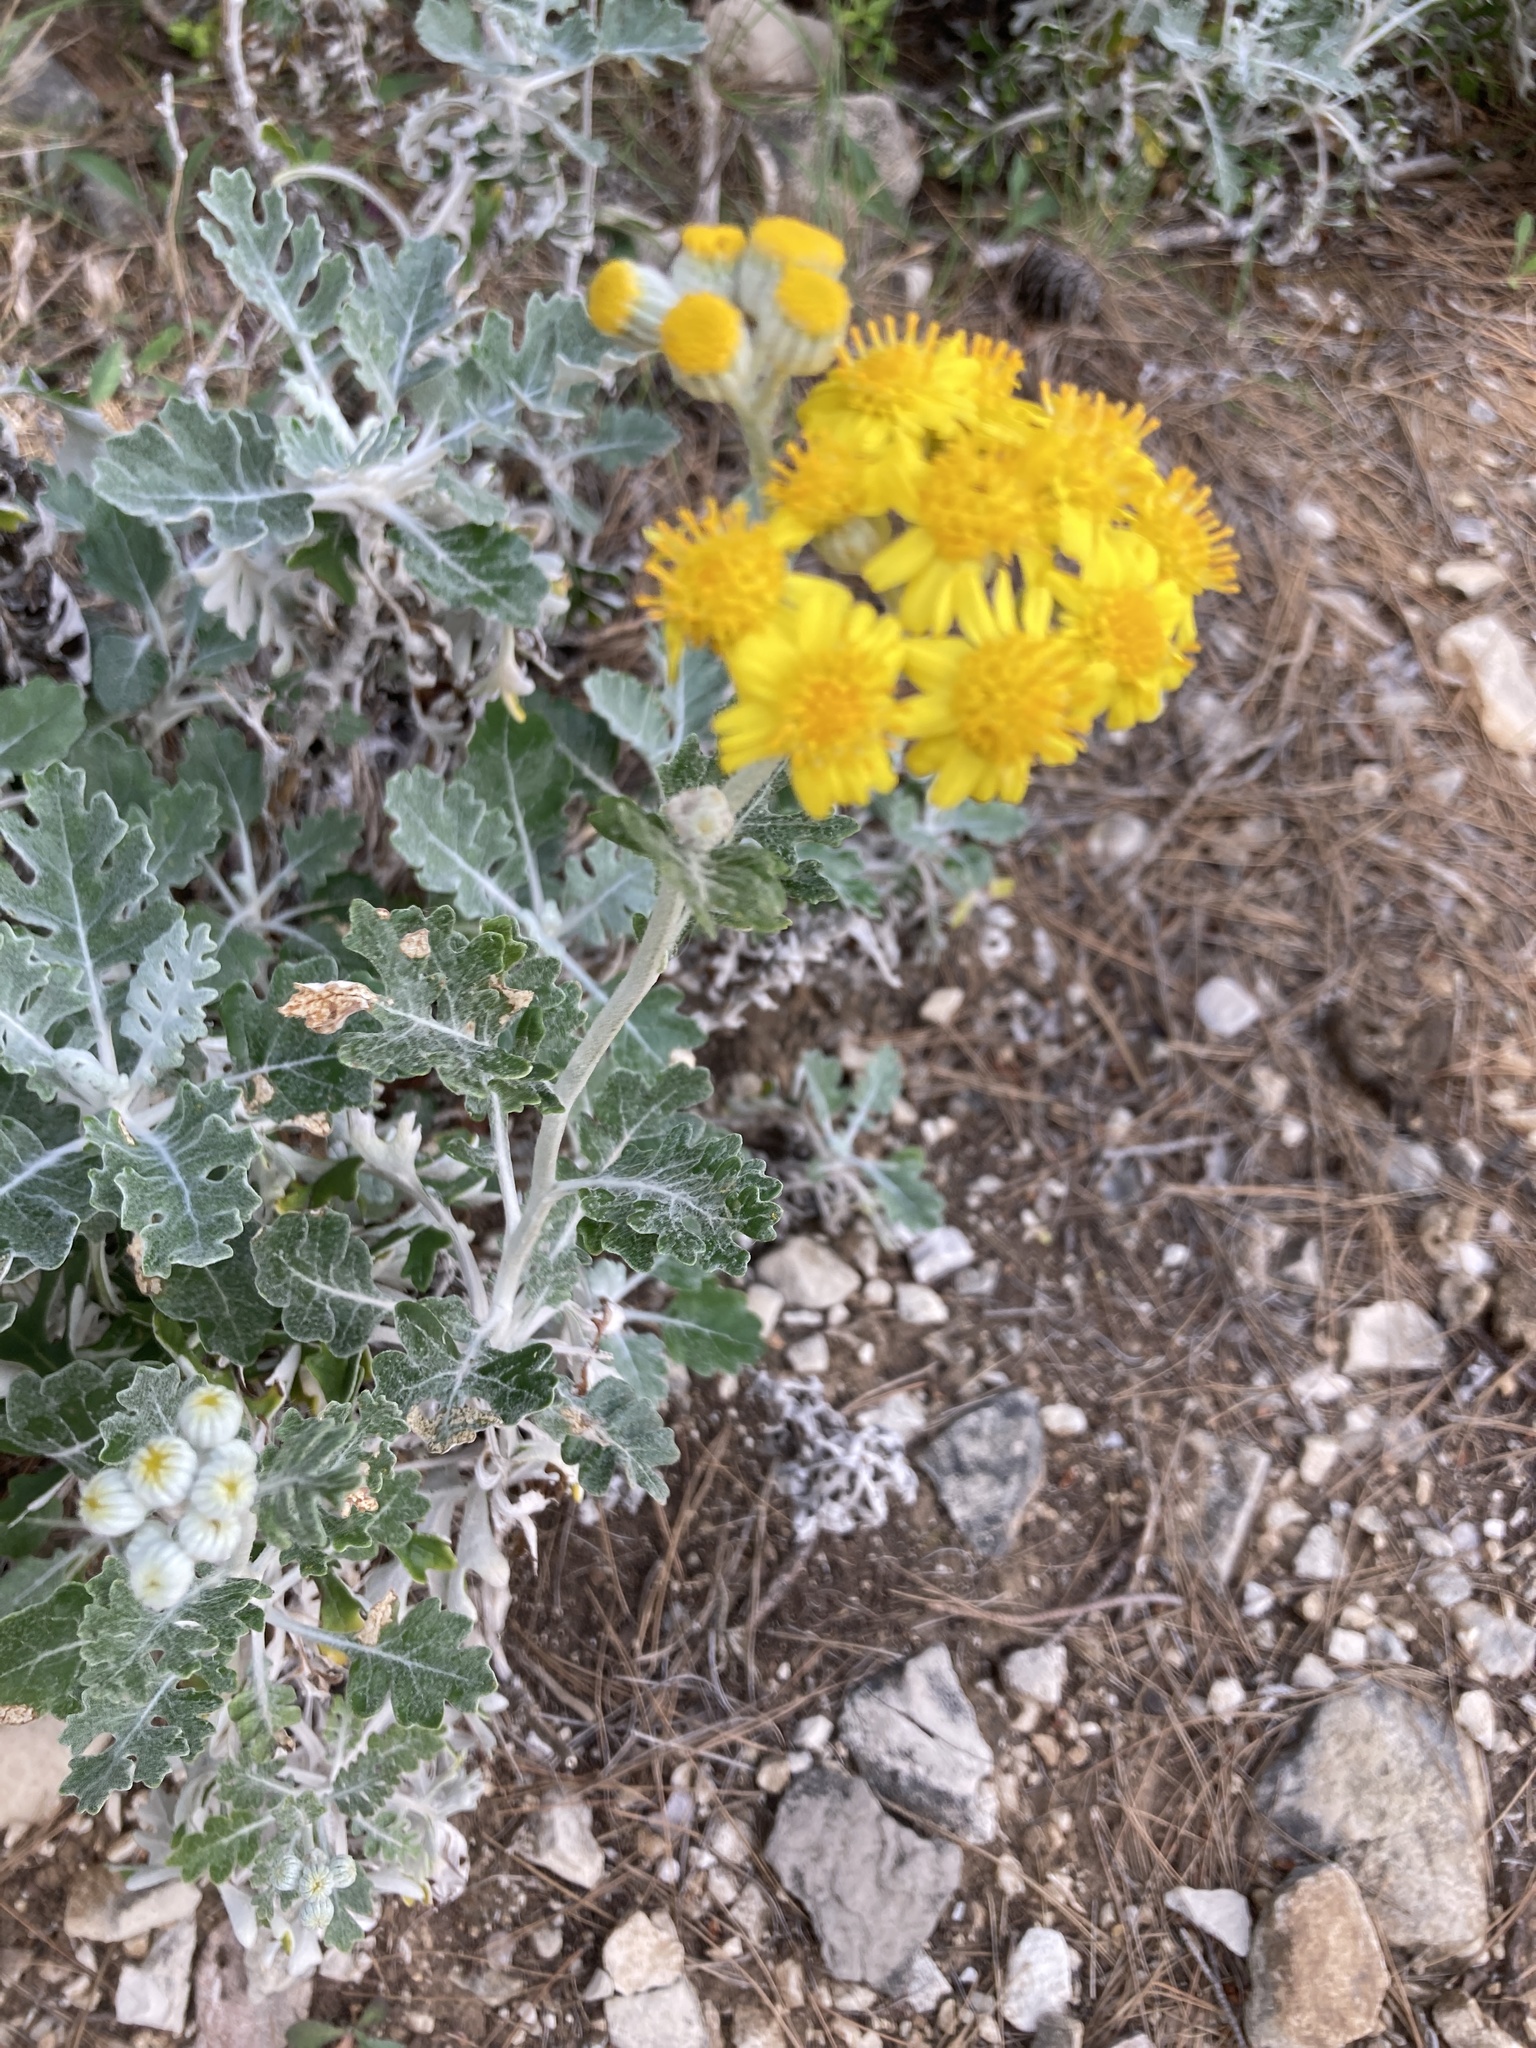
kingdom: Plantae
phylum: Tracheophyta
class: Magnoliopsida
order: Asterales
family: Asteraceae
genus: Jacobaea
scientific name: Jacobaea maritima
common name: Silver ragwort
